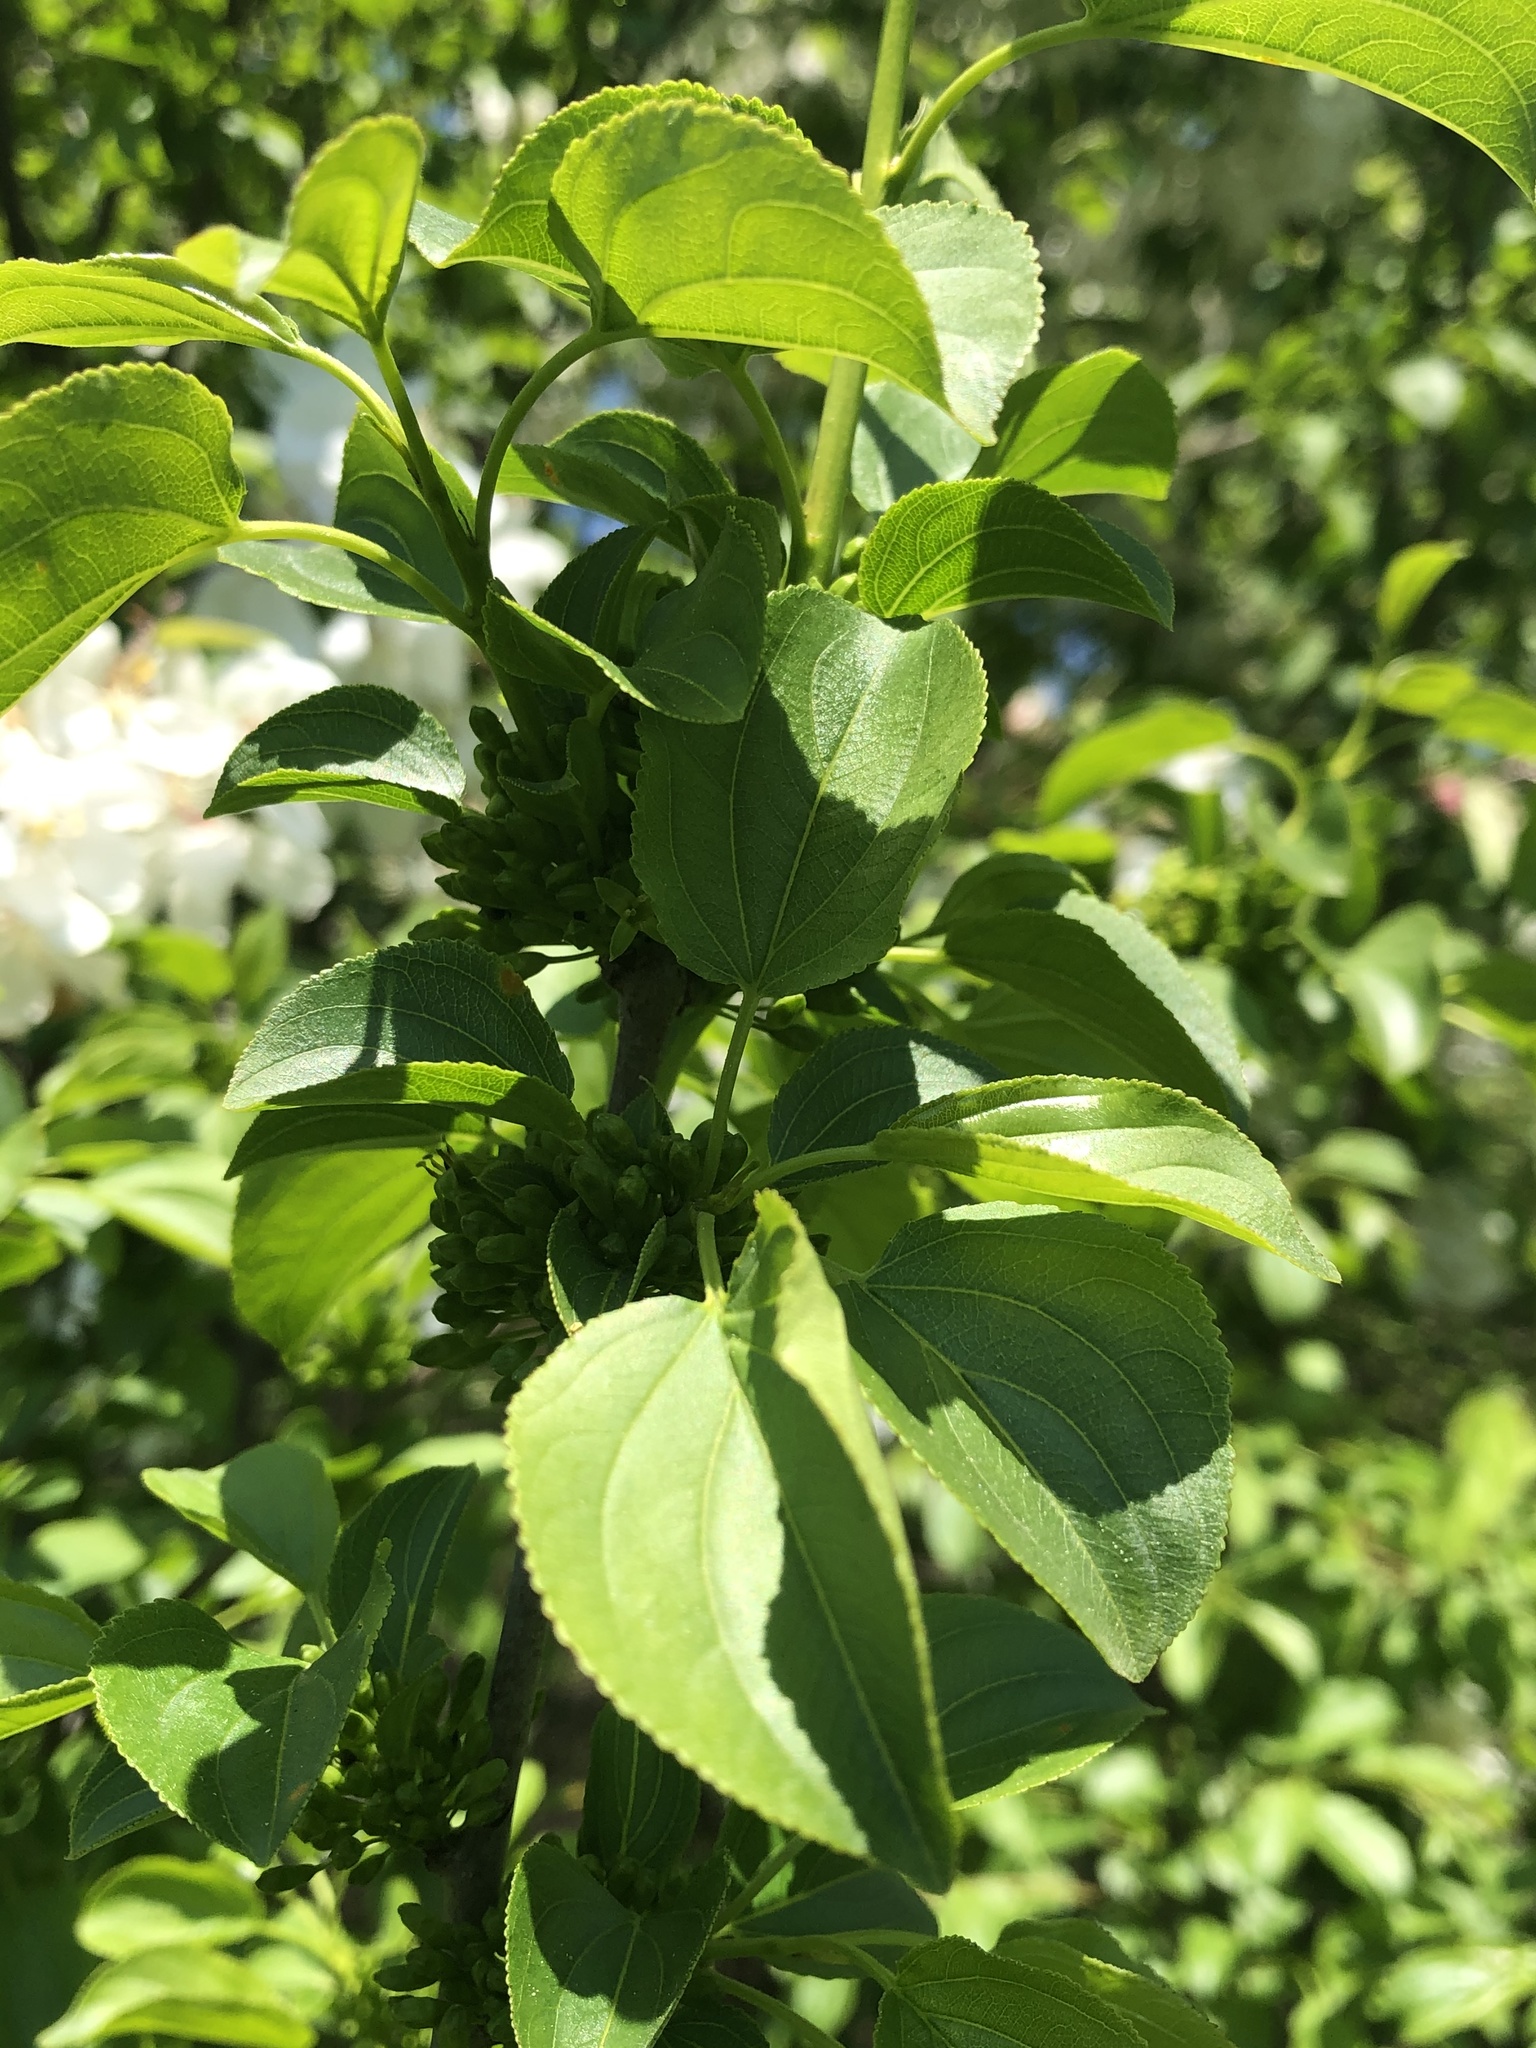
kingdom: Plantae
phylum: Tracheophyta
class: Magnoliopsida
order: Rosales
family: Rhamnaceae
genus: Rhamnus
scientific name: Rhamnus cathartica
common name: Common buckthorn
